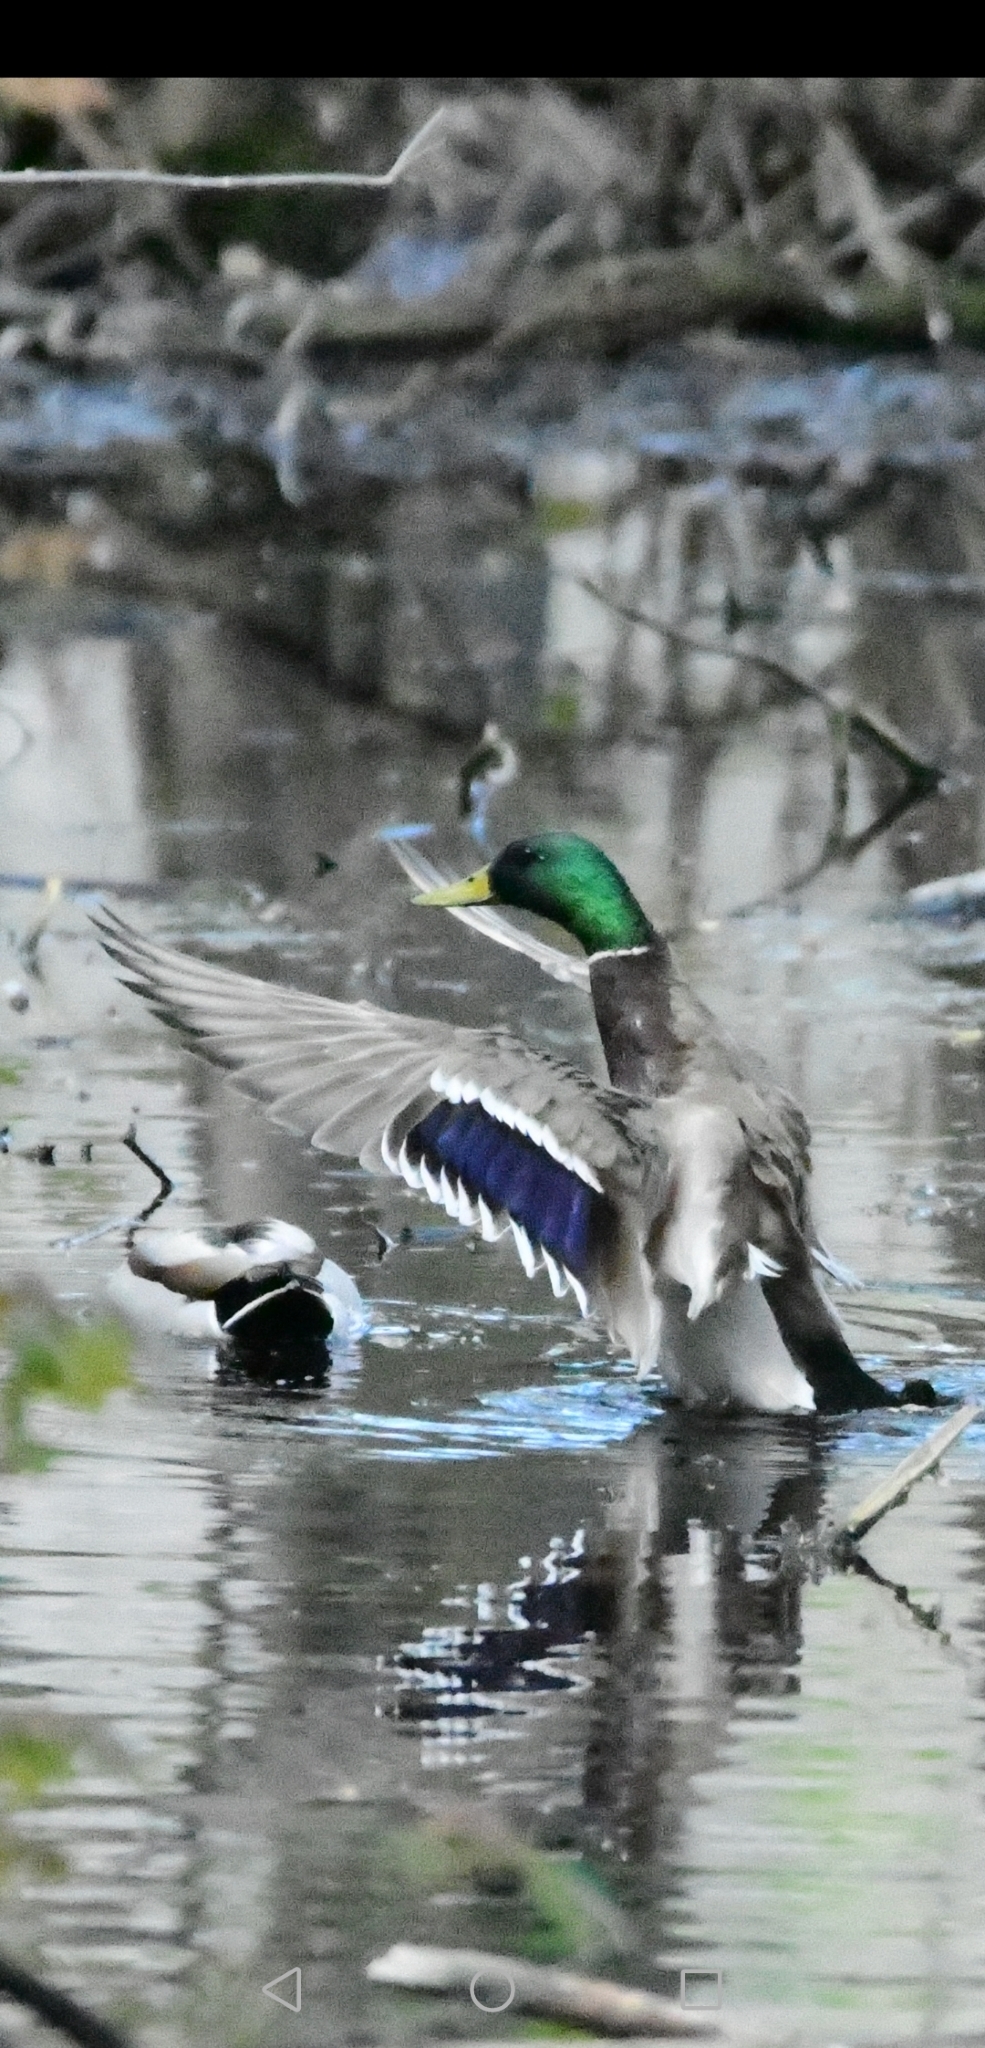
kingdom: Animalia
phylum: Chordata
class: Aves
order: Anseriformes
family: Anatidae
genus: Anas
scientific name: Anas platyrhynchos
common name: Mallard
